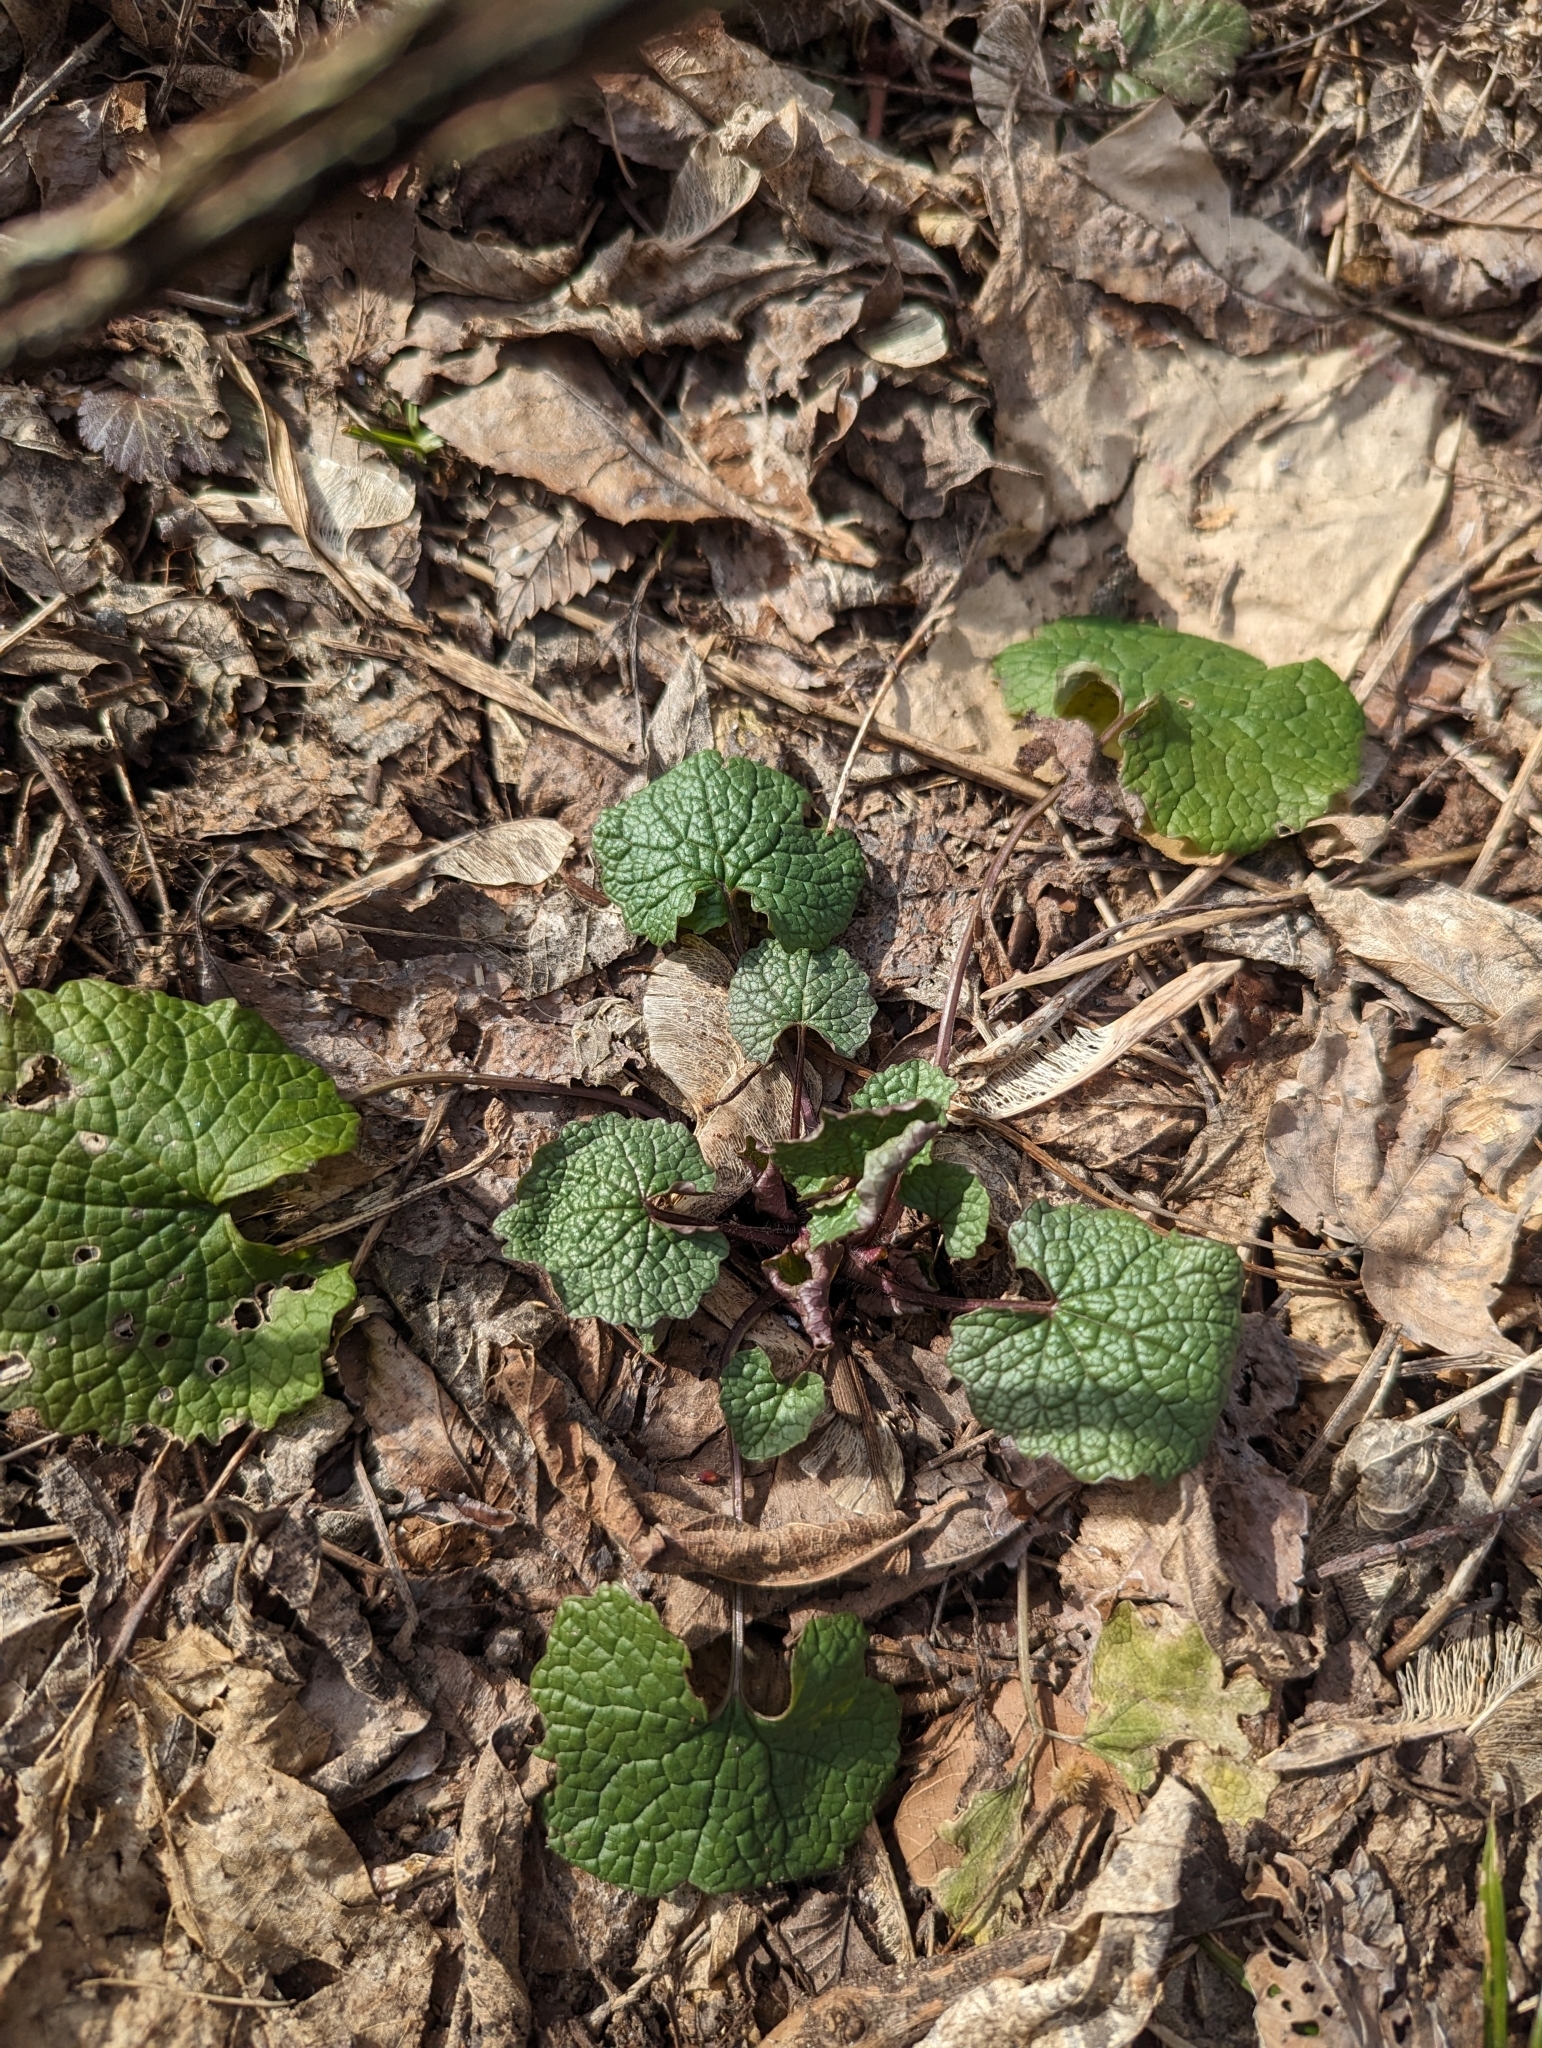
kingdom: Plantae
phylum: Tracheophyta
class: Magnoliopsida
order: Brassicales
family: Brassicaceae
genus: Alliaria
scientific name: Alliaria petiolata
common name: Garlic mustard
